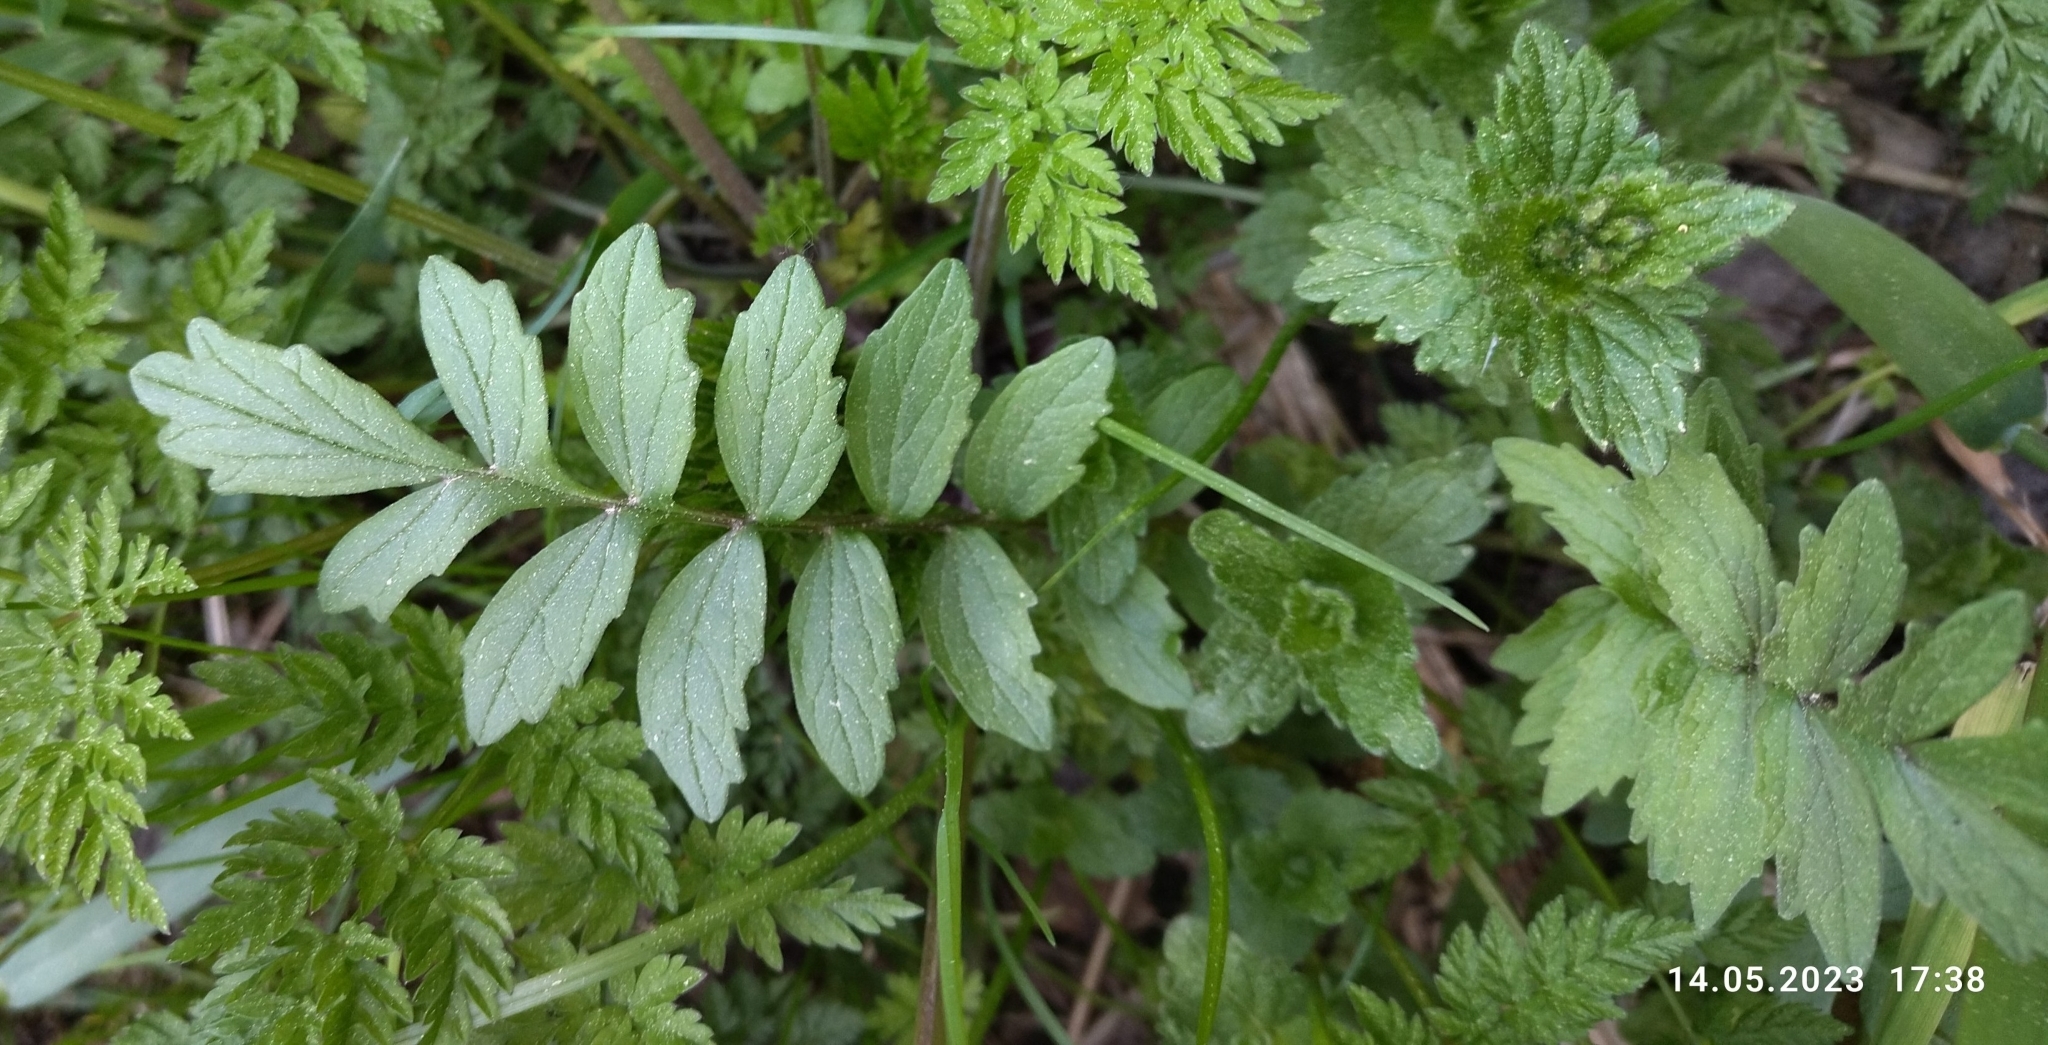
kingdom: Plantae
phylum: Tracheophyta
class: Magnoliopsida
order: Dipsacales
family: Caprifoliaceae
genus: Valeriana
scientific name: Valeriana officinalis
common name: Common valerian
